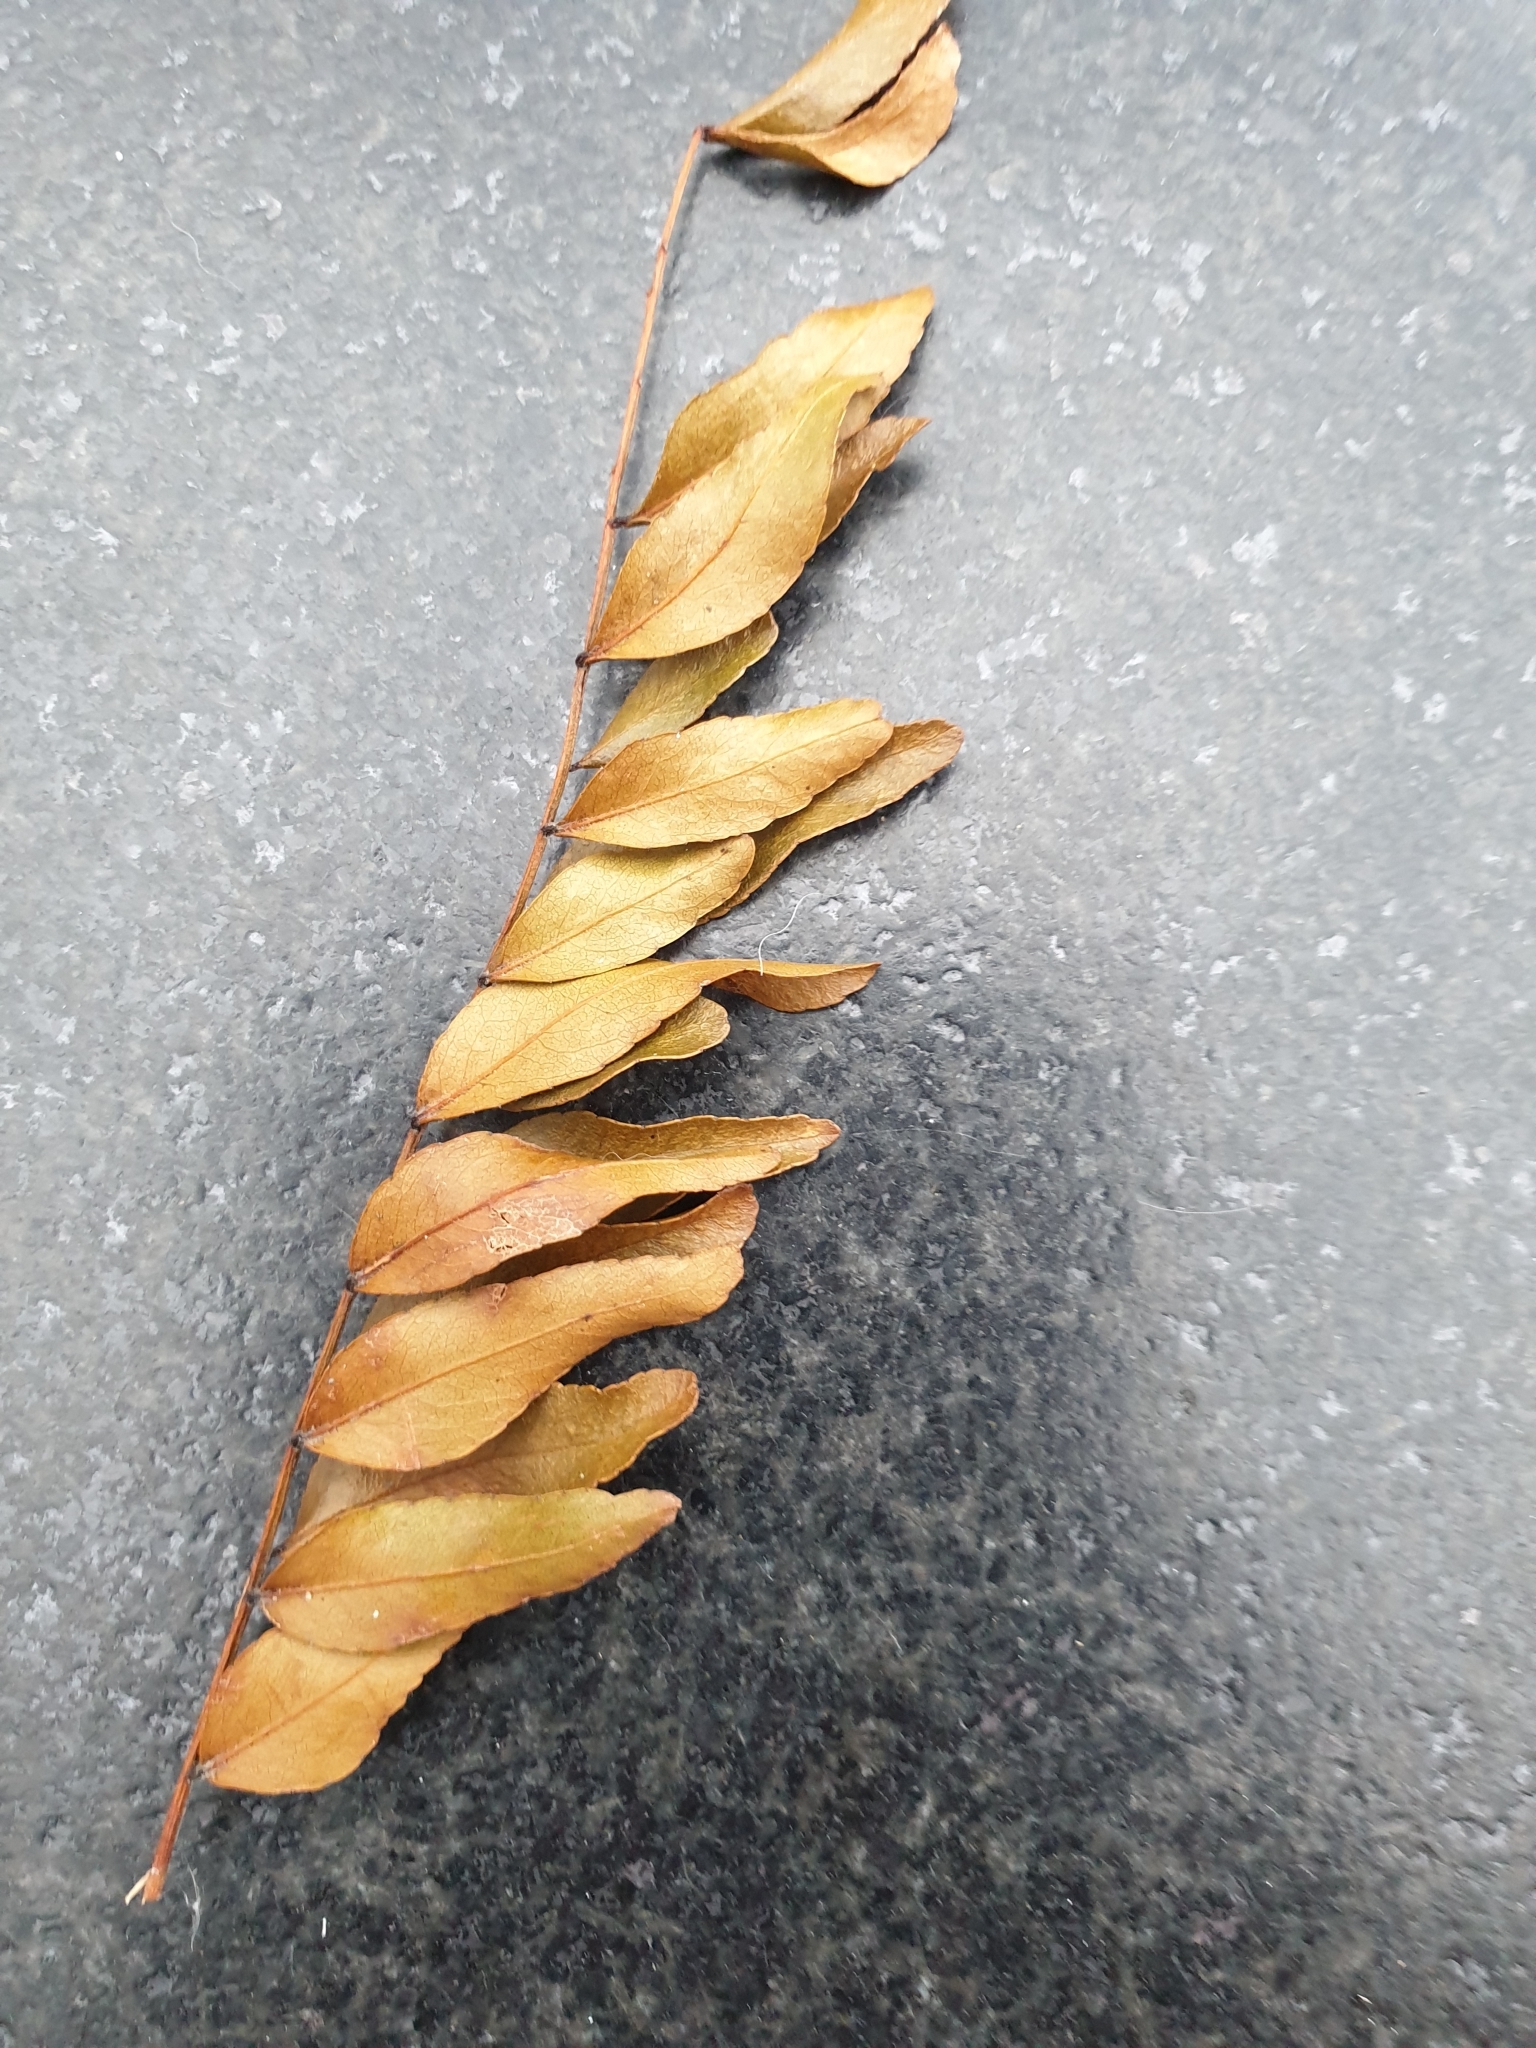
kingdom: Plantae
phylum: Tracheophyta
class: Magnoliopsida
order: Fabales
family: Fabaceae
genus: Gleditsia
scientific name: Gleditsia triacanthos
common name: Common honeylocust
